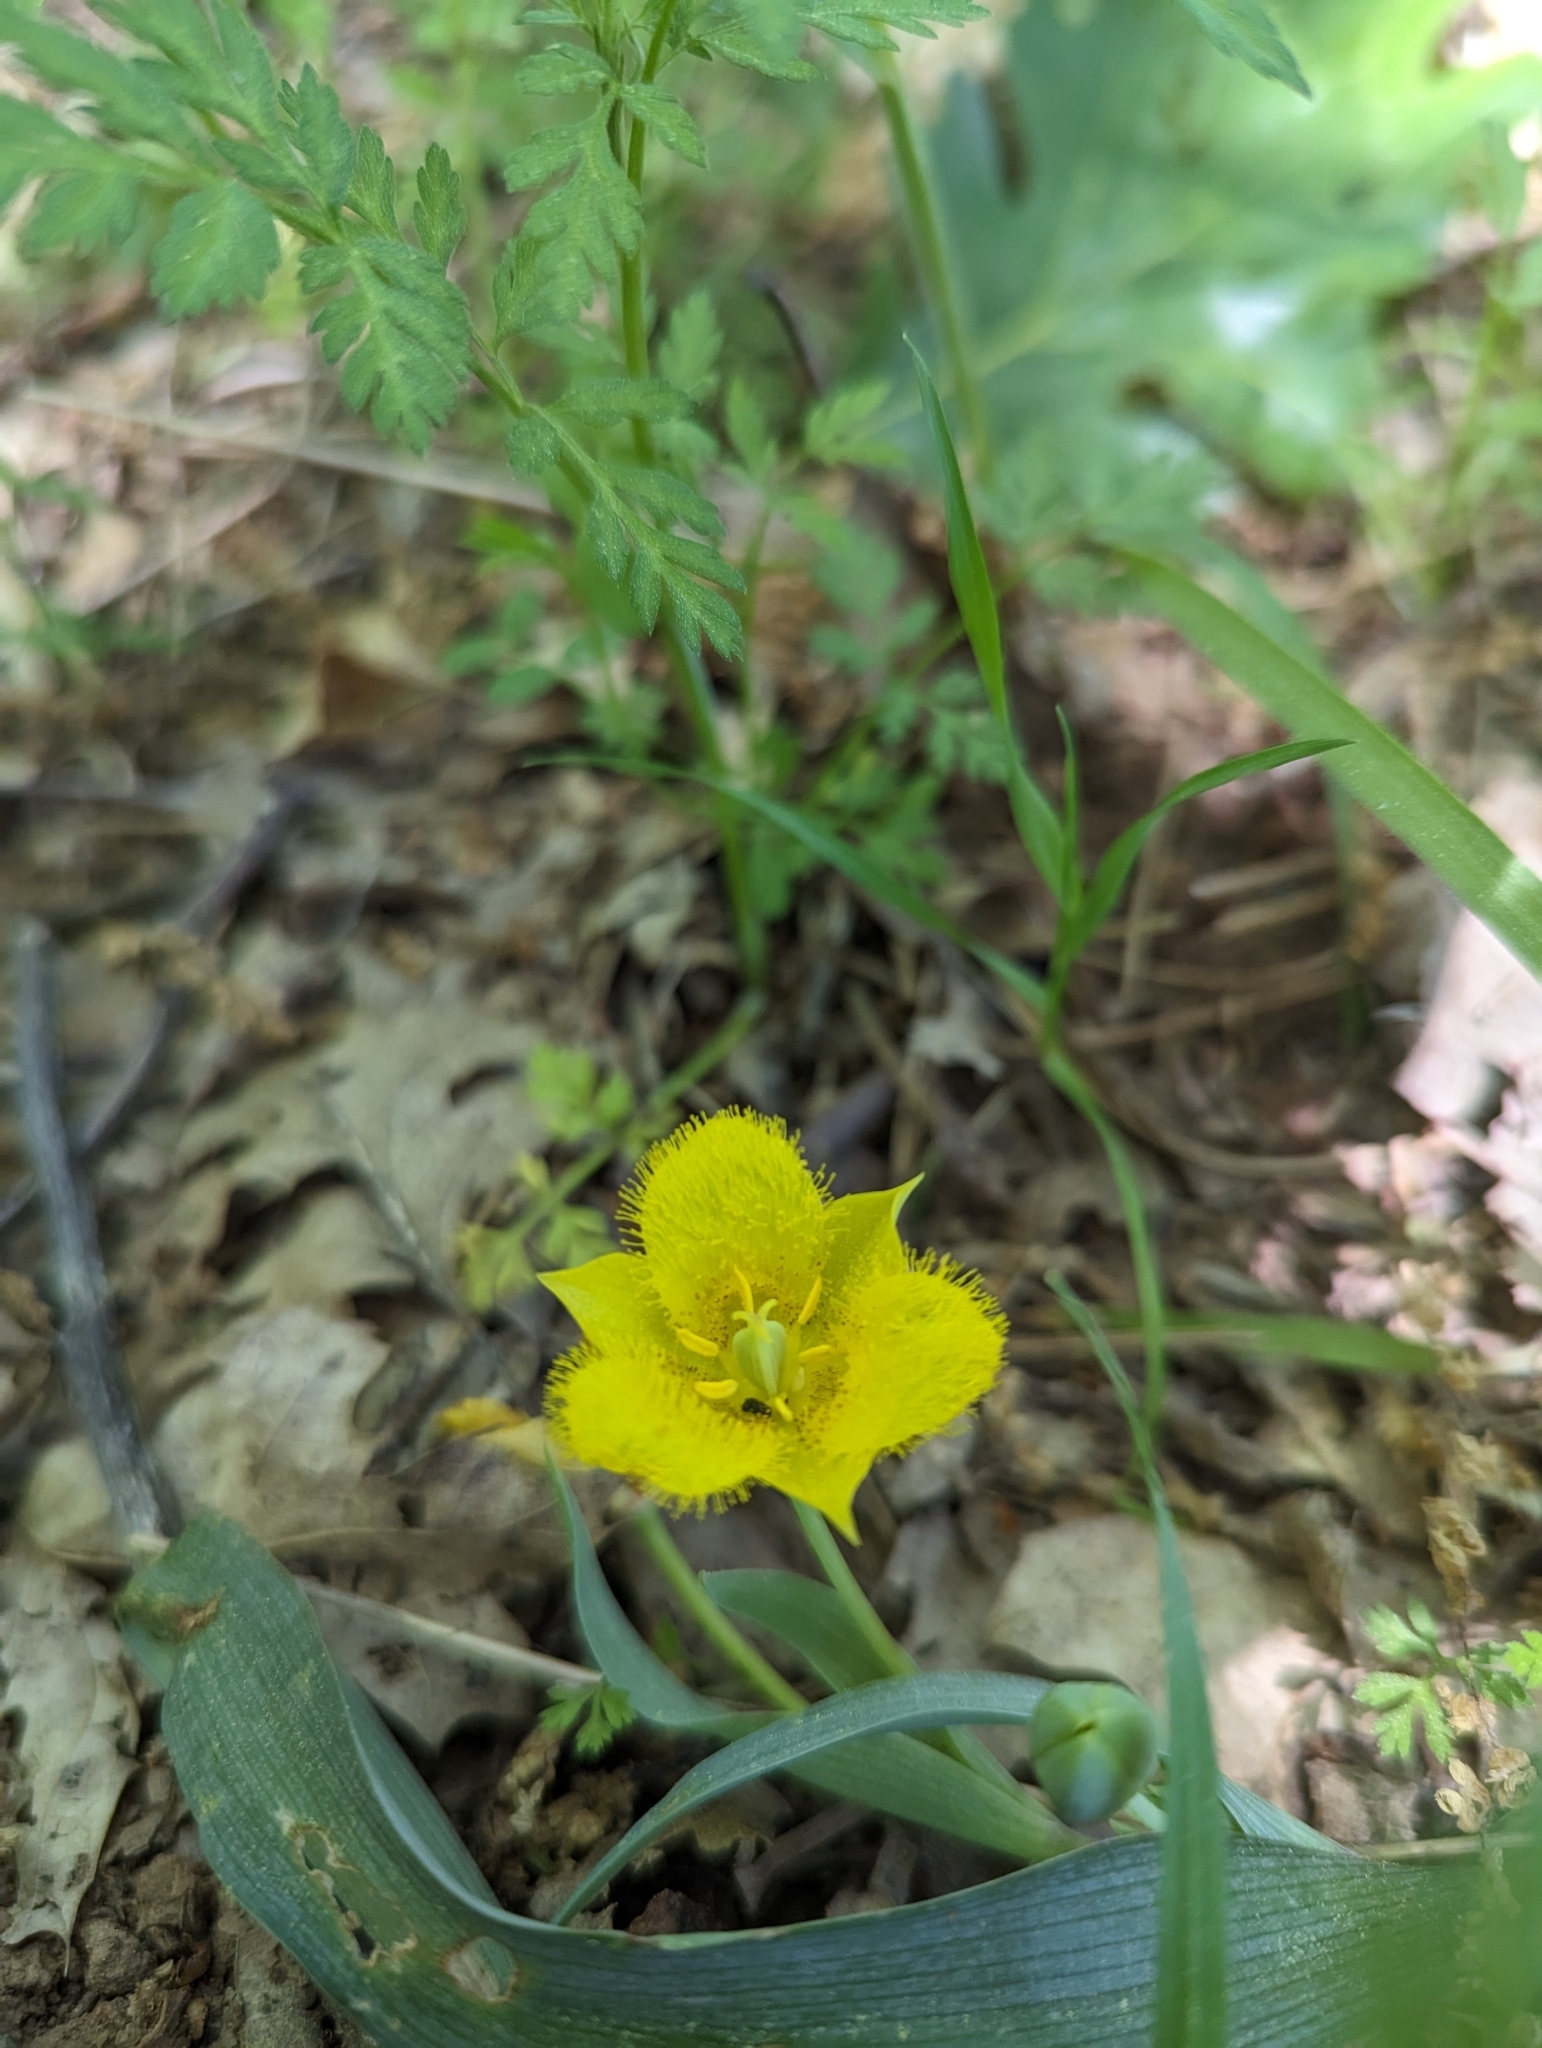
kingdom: Plantae
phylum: Tracheophyta
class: Liliopsida
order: Liliales
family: Liliaceae
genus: Calochortus
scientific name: Calochortus monophyllus
